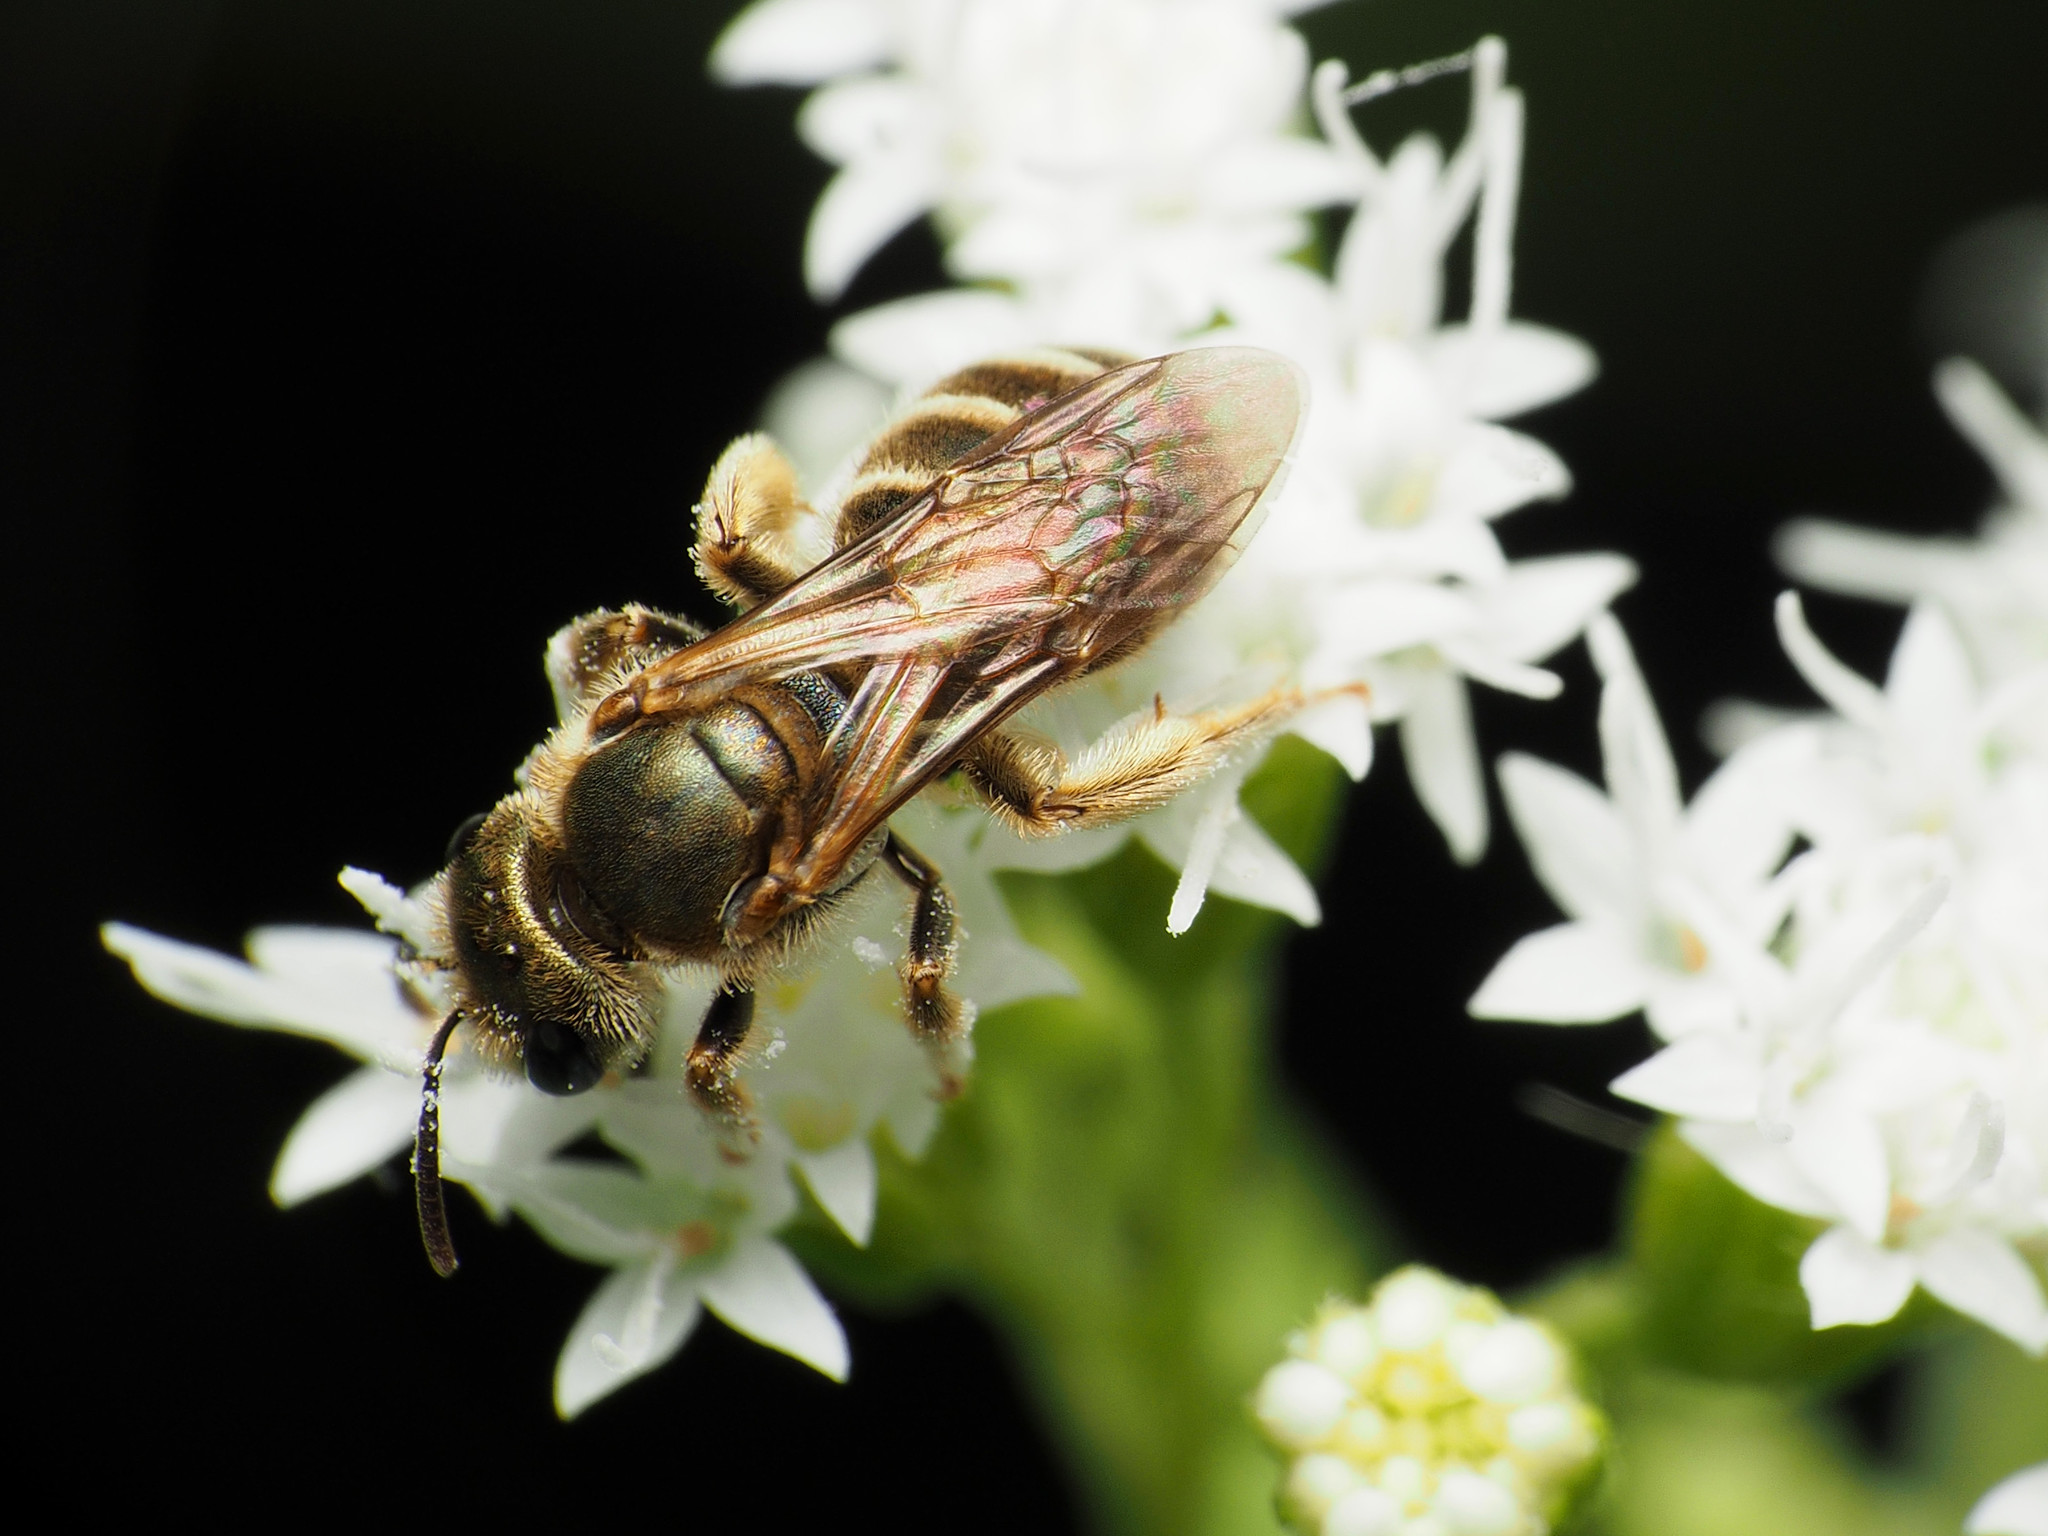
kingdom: Animalia
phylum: Arthropoda
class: Insecta
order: Hymenoptera
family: Halictidae
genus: Halictus
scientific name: Halictus confusus
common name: Southern bronze furrow bee
